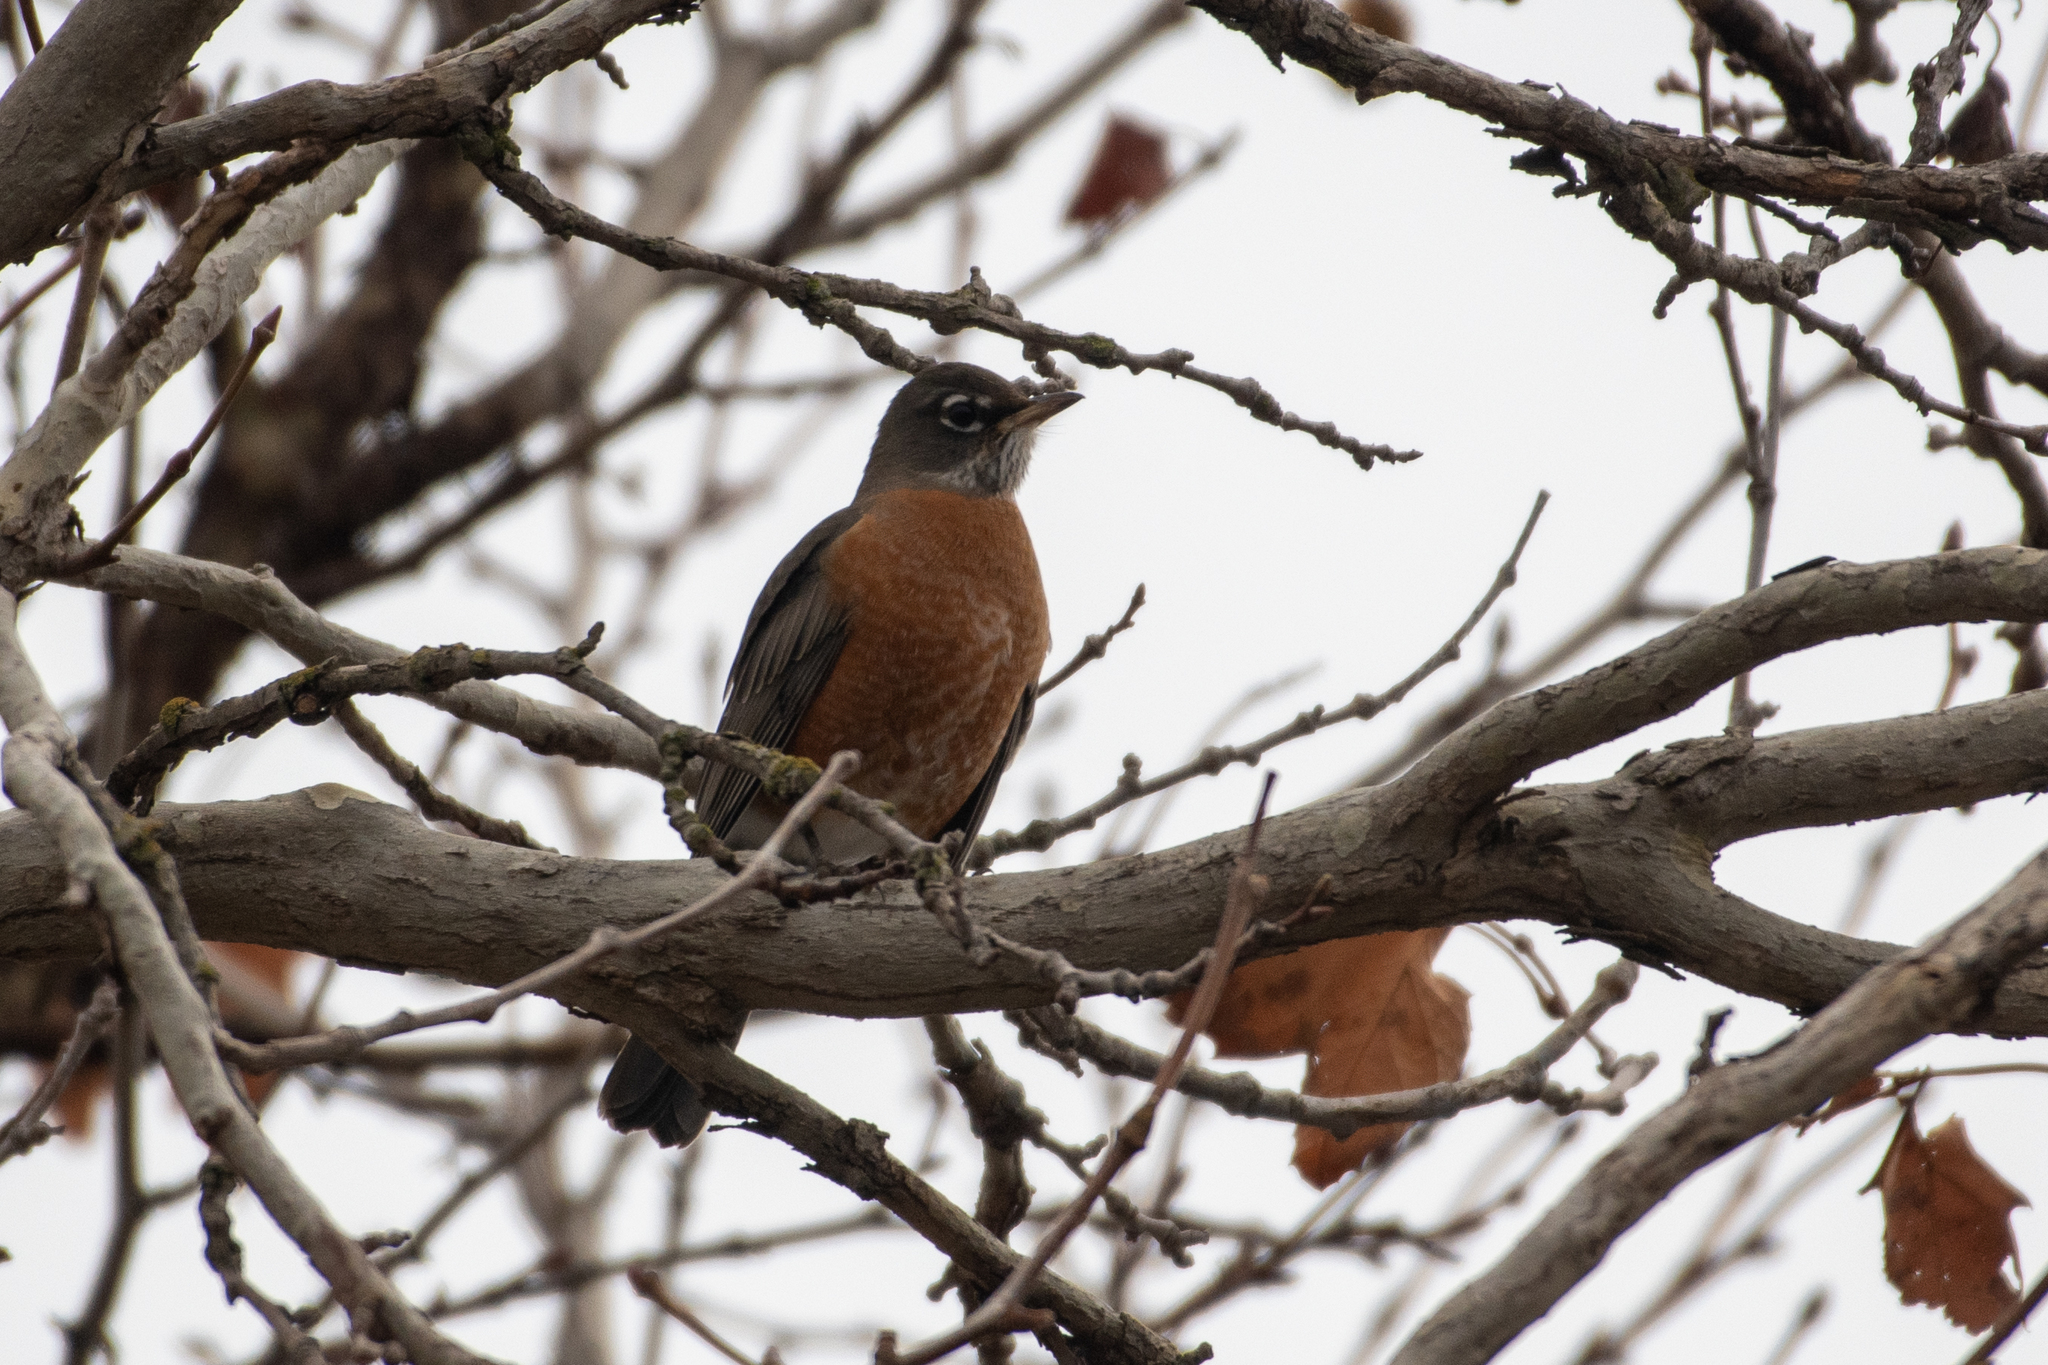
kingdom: Animalia
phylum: Chordata
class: Aves
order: Passeriformes
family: Turdidae
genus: Turdus
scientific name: Turdus migratorius
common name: American robin
